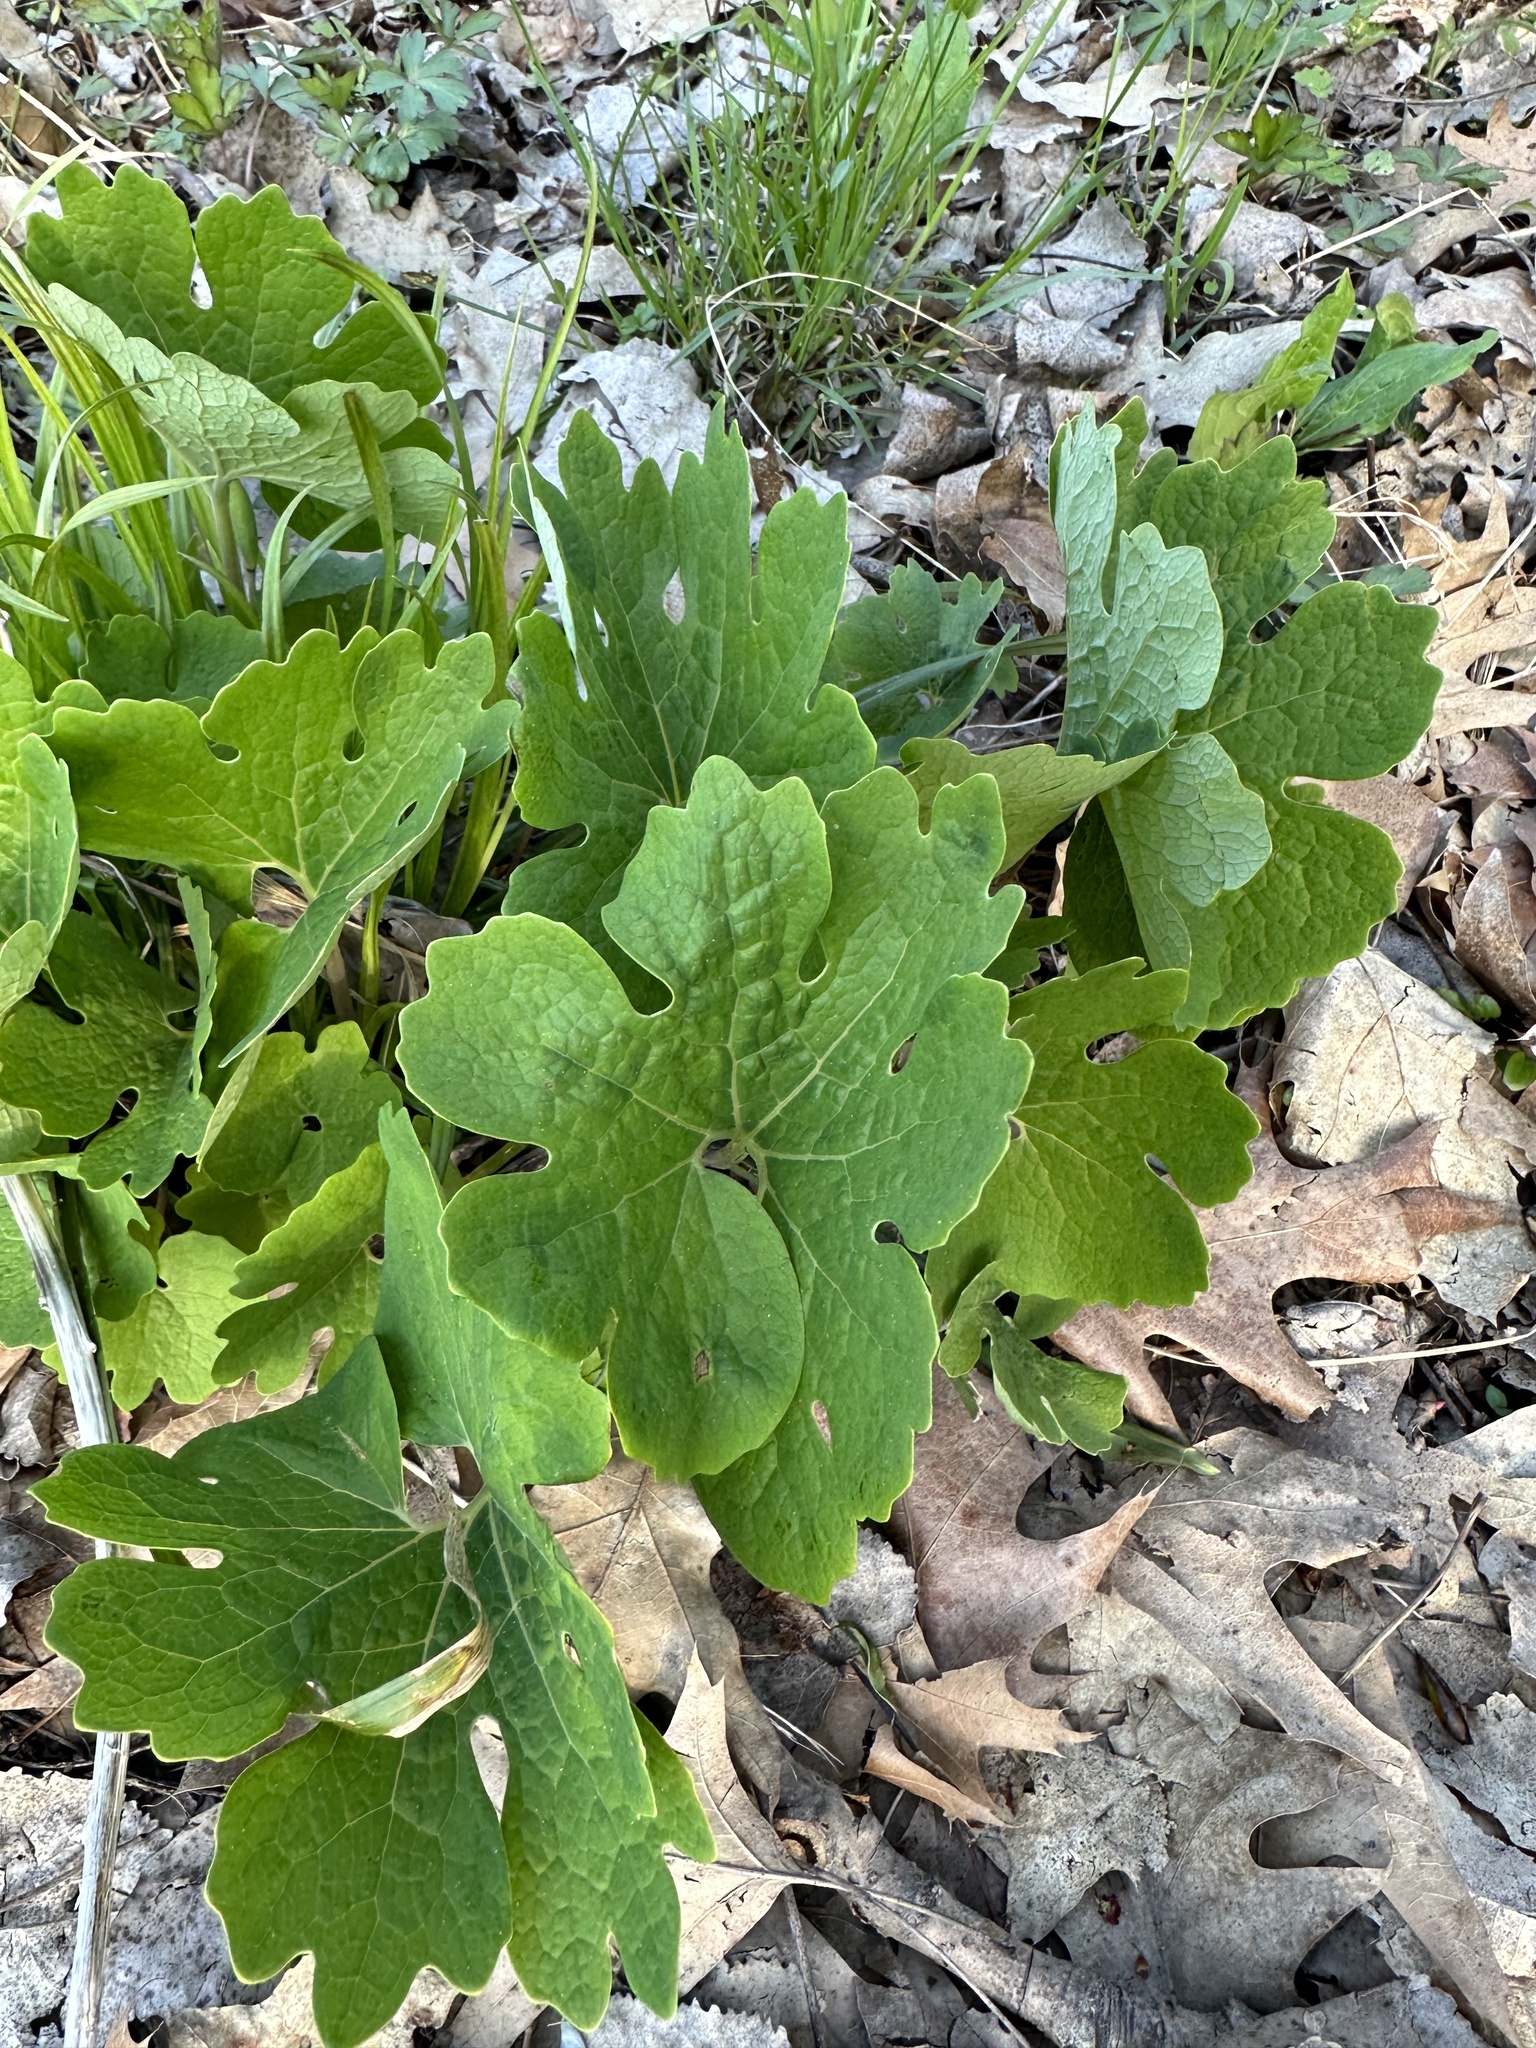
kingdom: Plantae
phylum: Tracheophyta
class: Magnoliopsida
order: Ranunculales
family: Papaveraceae
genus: Sanguinaria
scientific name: Sanguinaria canadensis
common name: Bloodroot
